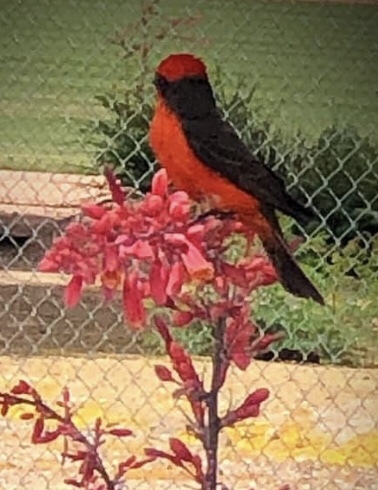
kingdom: Animalia
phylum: Chordata
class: Aves
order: Passeriformes
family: Tyrannidae
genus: Pyrocephalus
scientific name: Pyrocephalus rubinus
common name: Vermilion flycatcher
